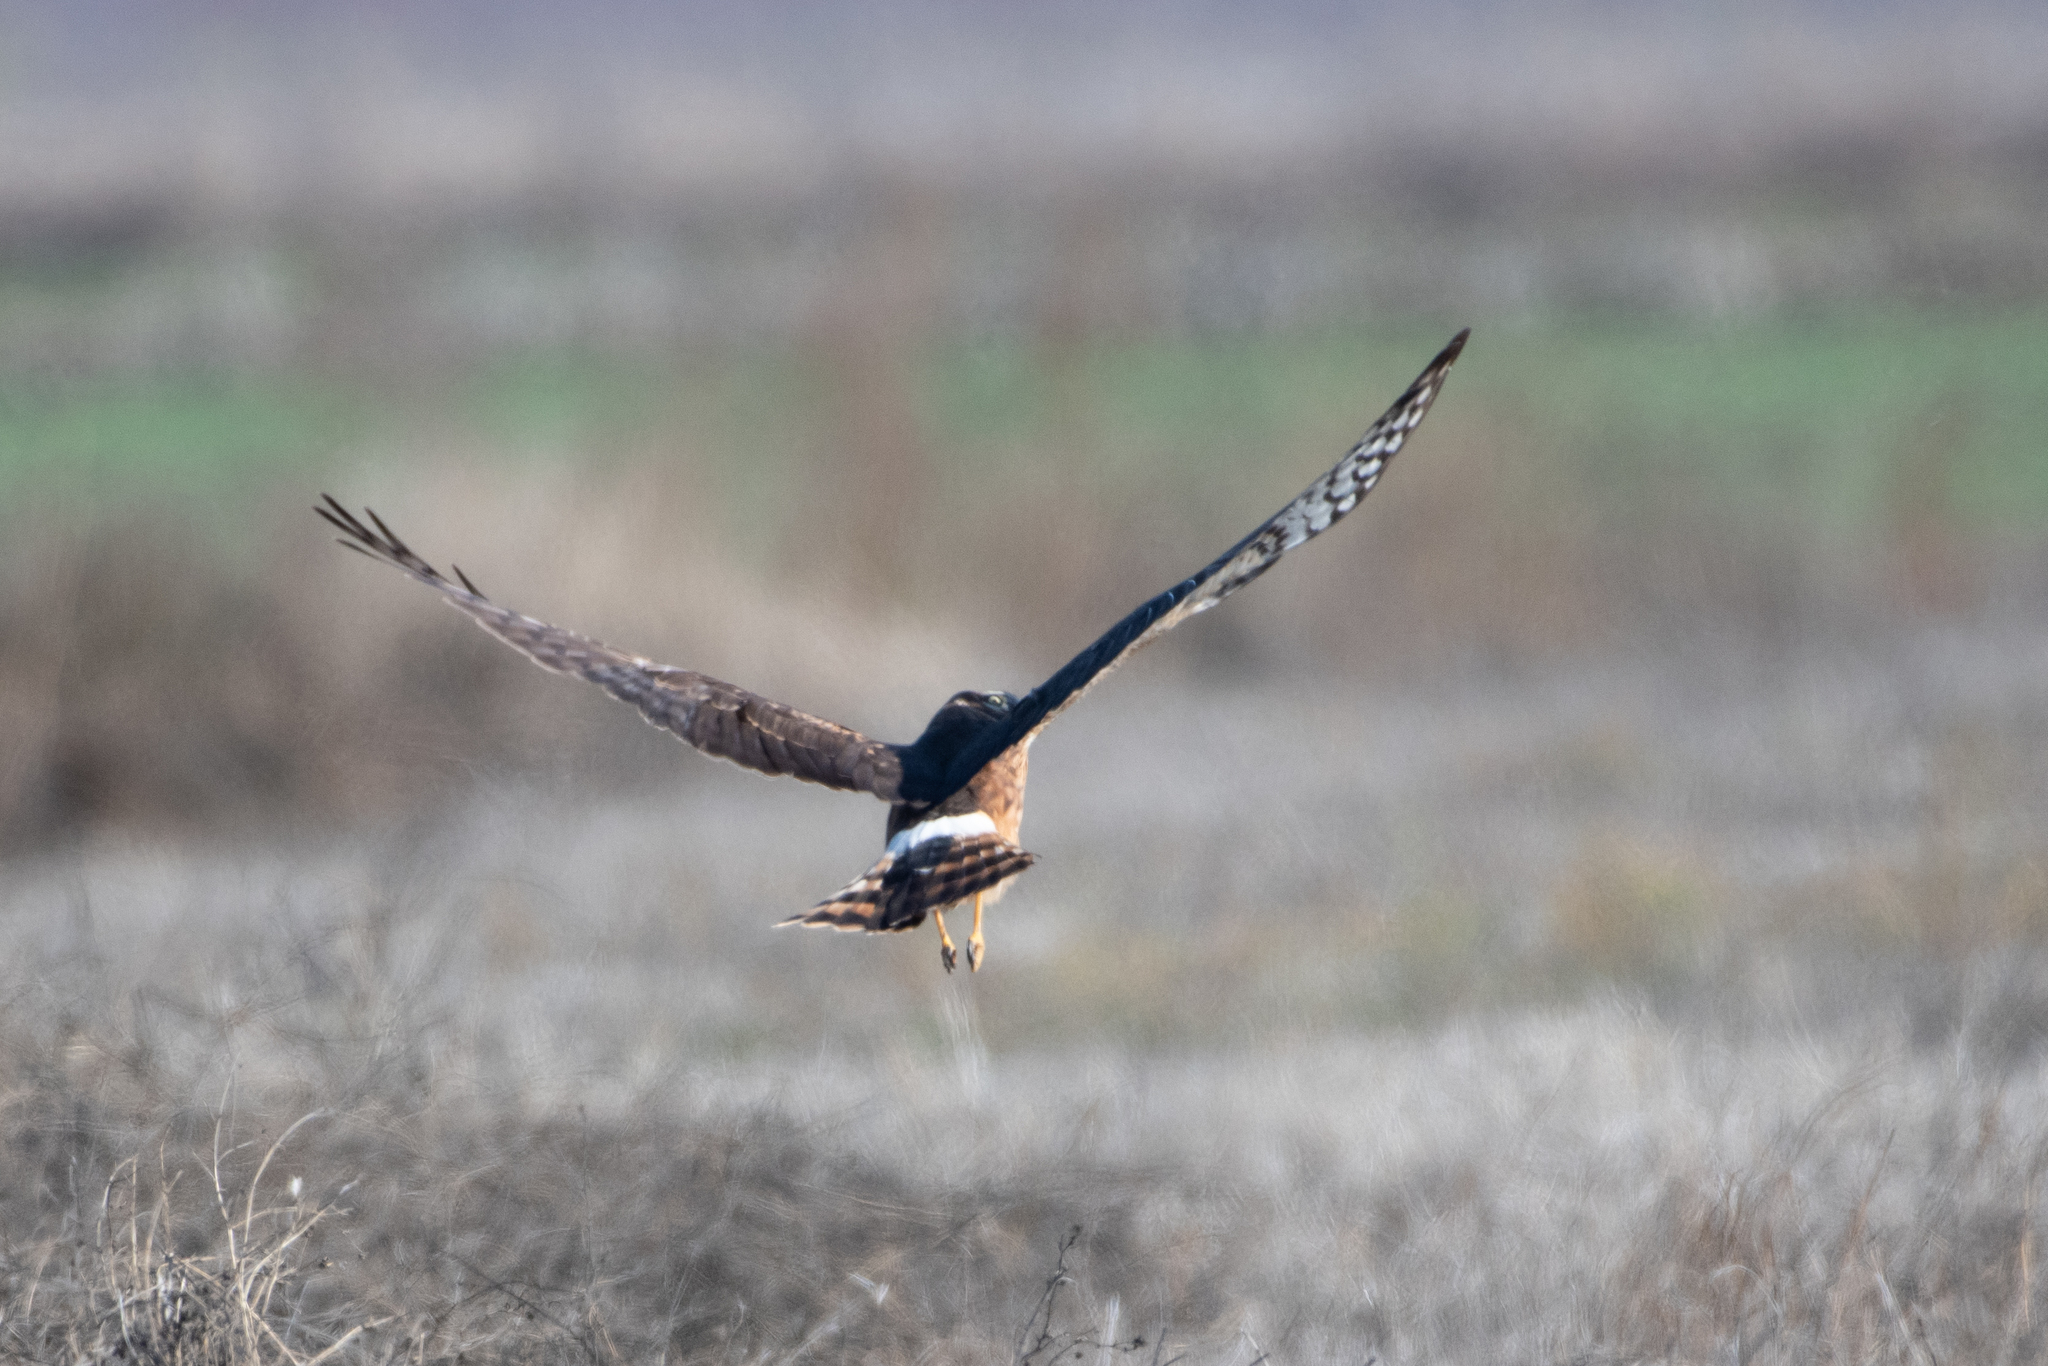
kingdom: Animalia
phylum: Chordata
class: Aves
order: Accipitriformes
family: Accipitridae
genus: Circus
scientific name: Circus cyaneus
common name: Hen harrier
